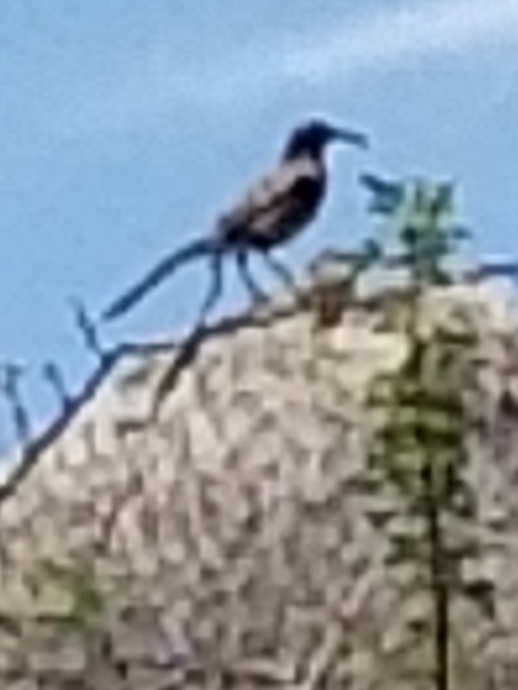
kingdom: Animalia
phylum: Chordata
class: Aves
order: Passeriformes
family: Mimidae
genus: Toxostoma
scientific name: Toxostoma redivivum
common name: California thrasher
